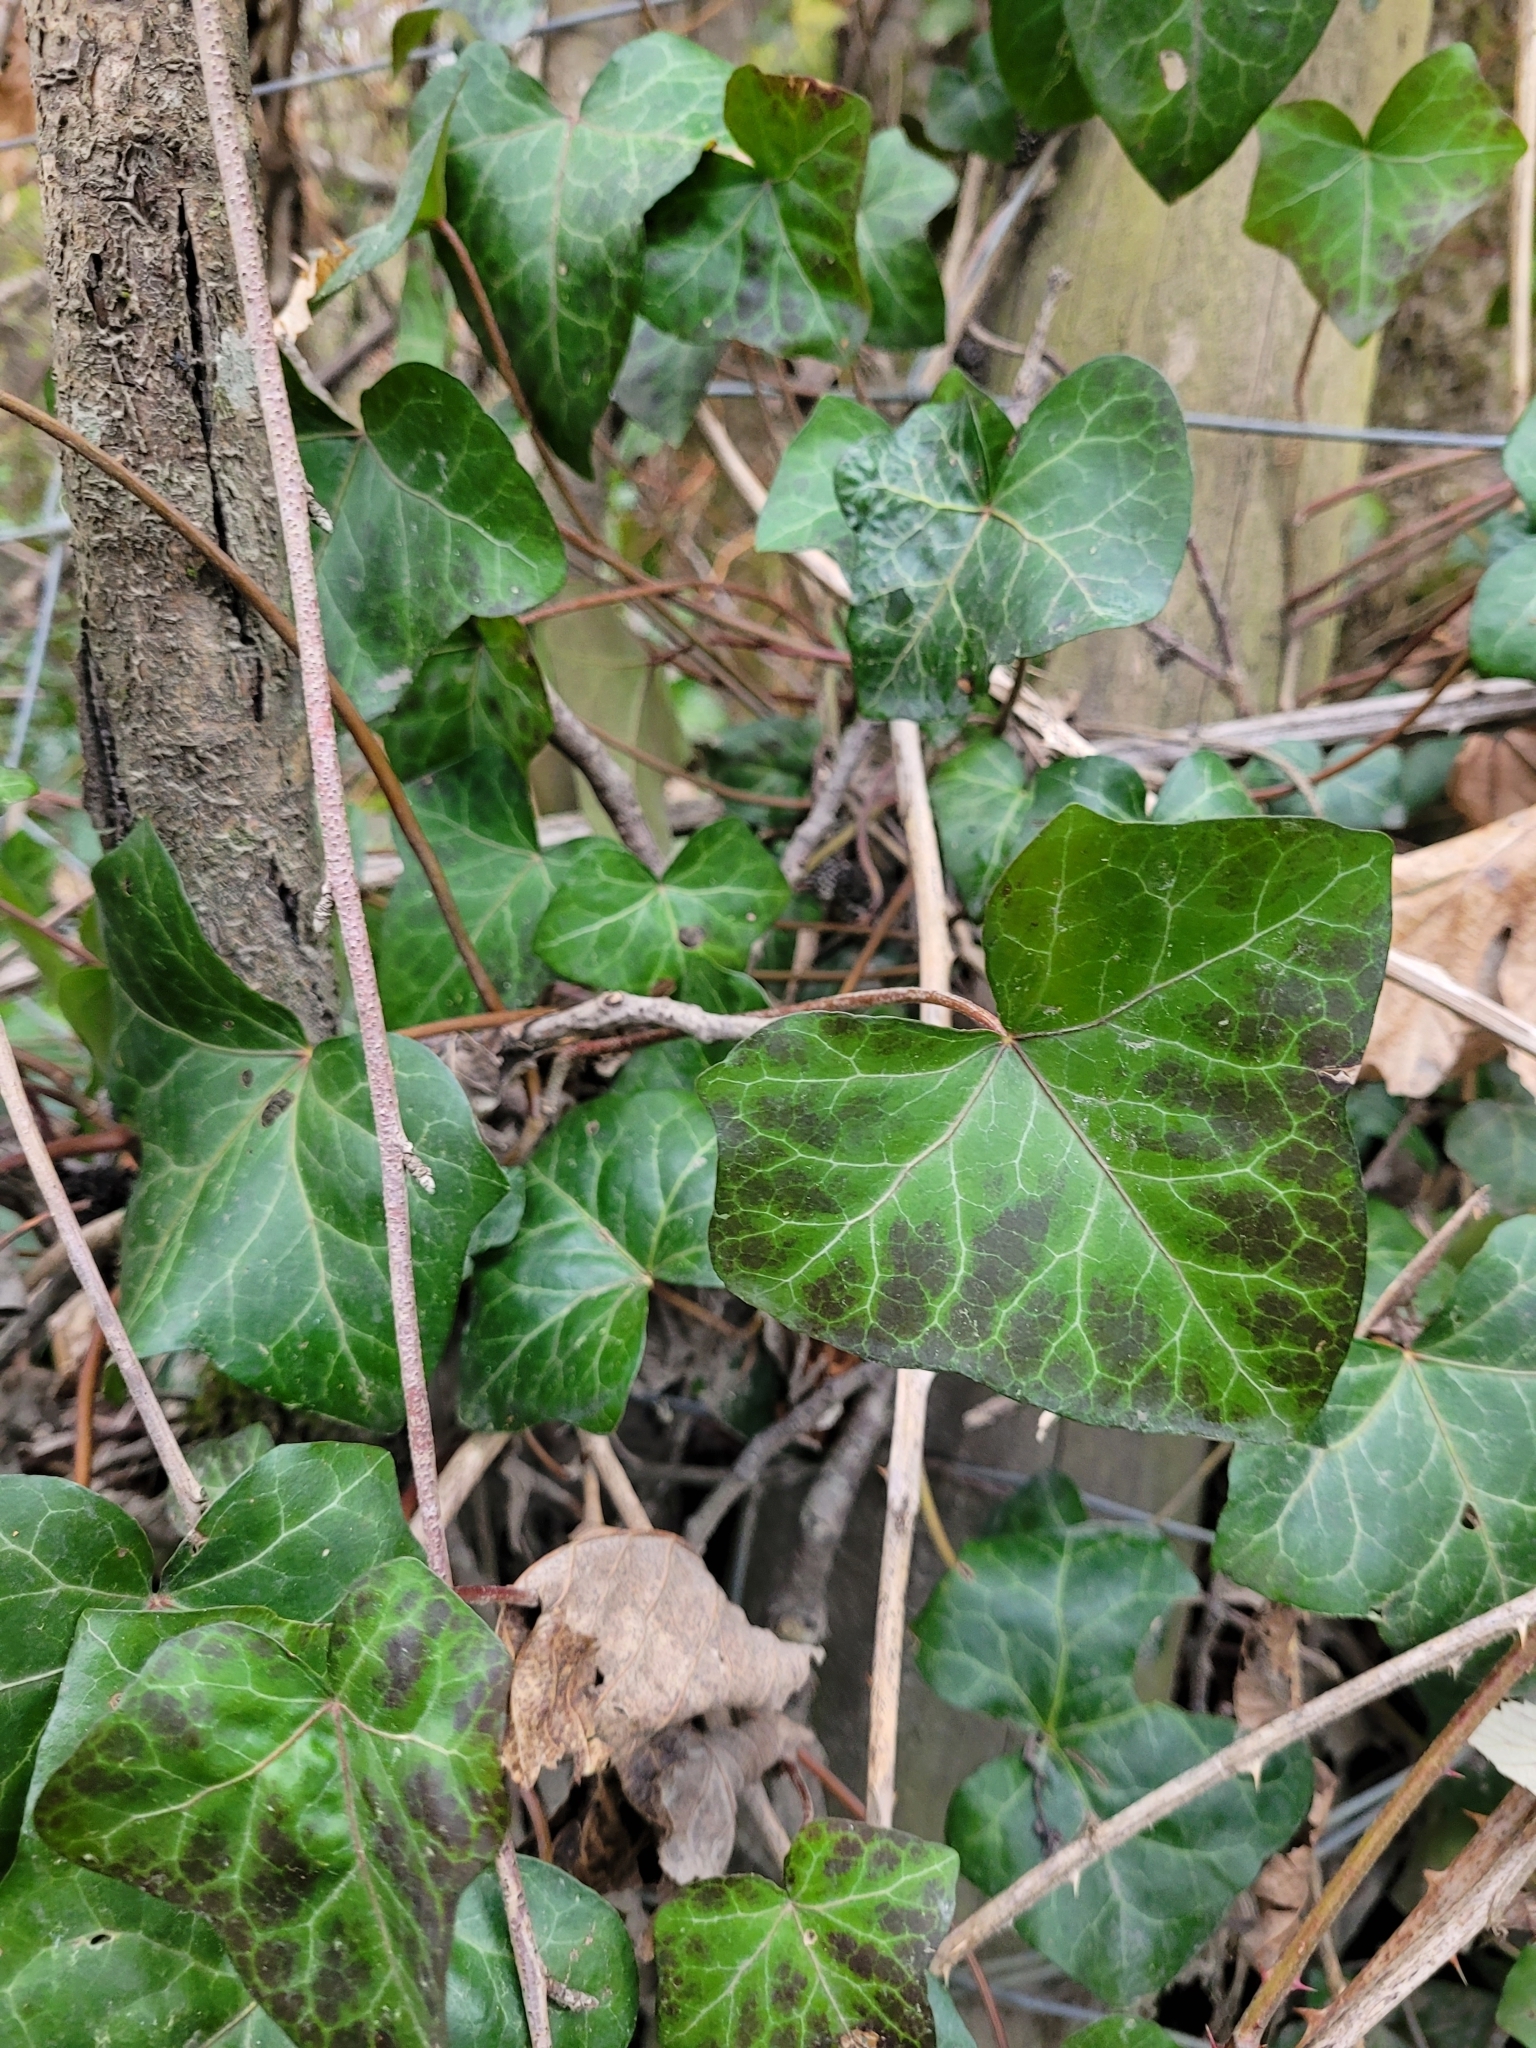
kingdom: Plantae
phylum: Tracheophyta
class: Magnoliopsida
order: Apiales
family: Araliaceae
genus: Hedera
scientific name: Hedera helix
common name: Ivy
